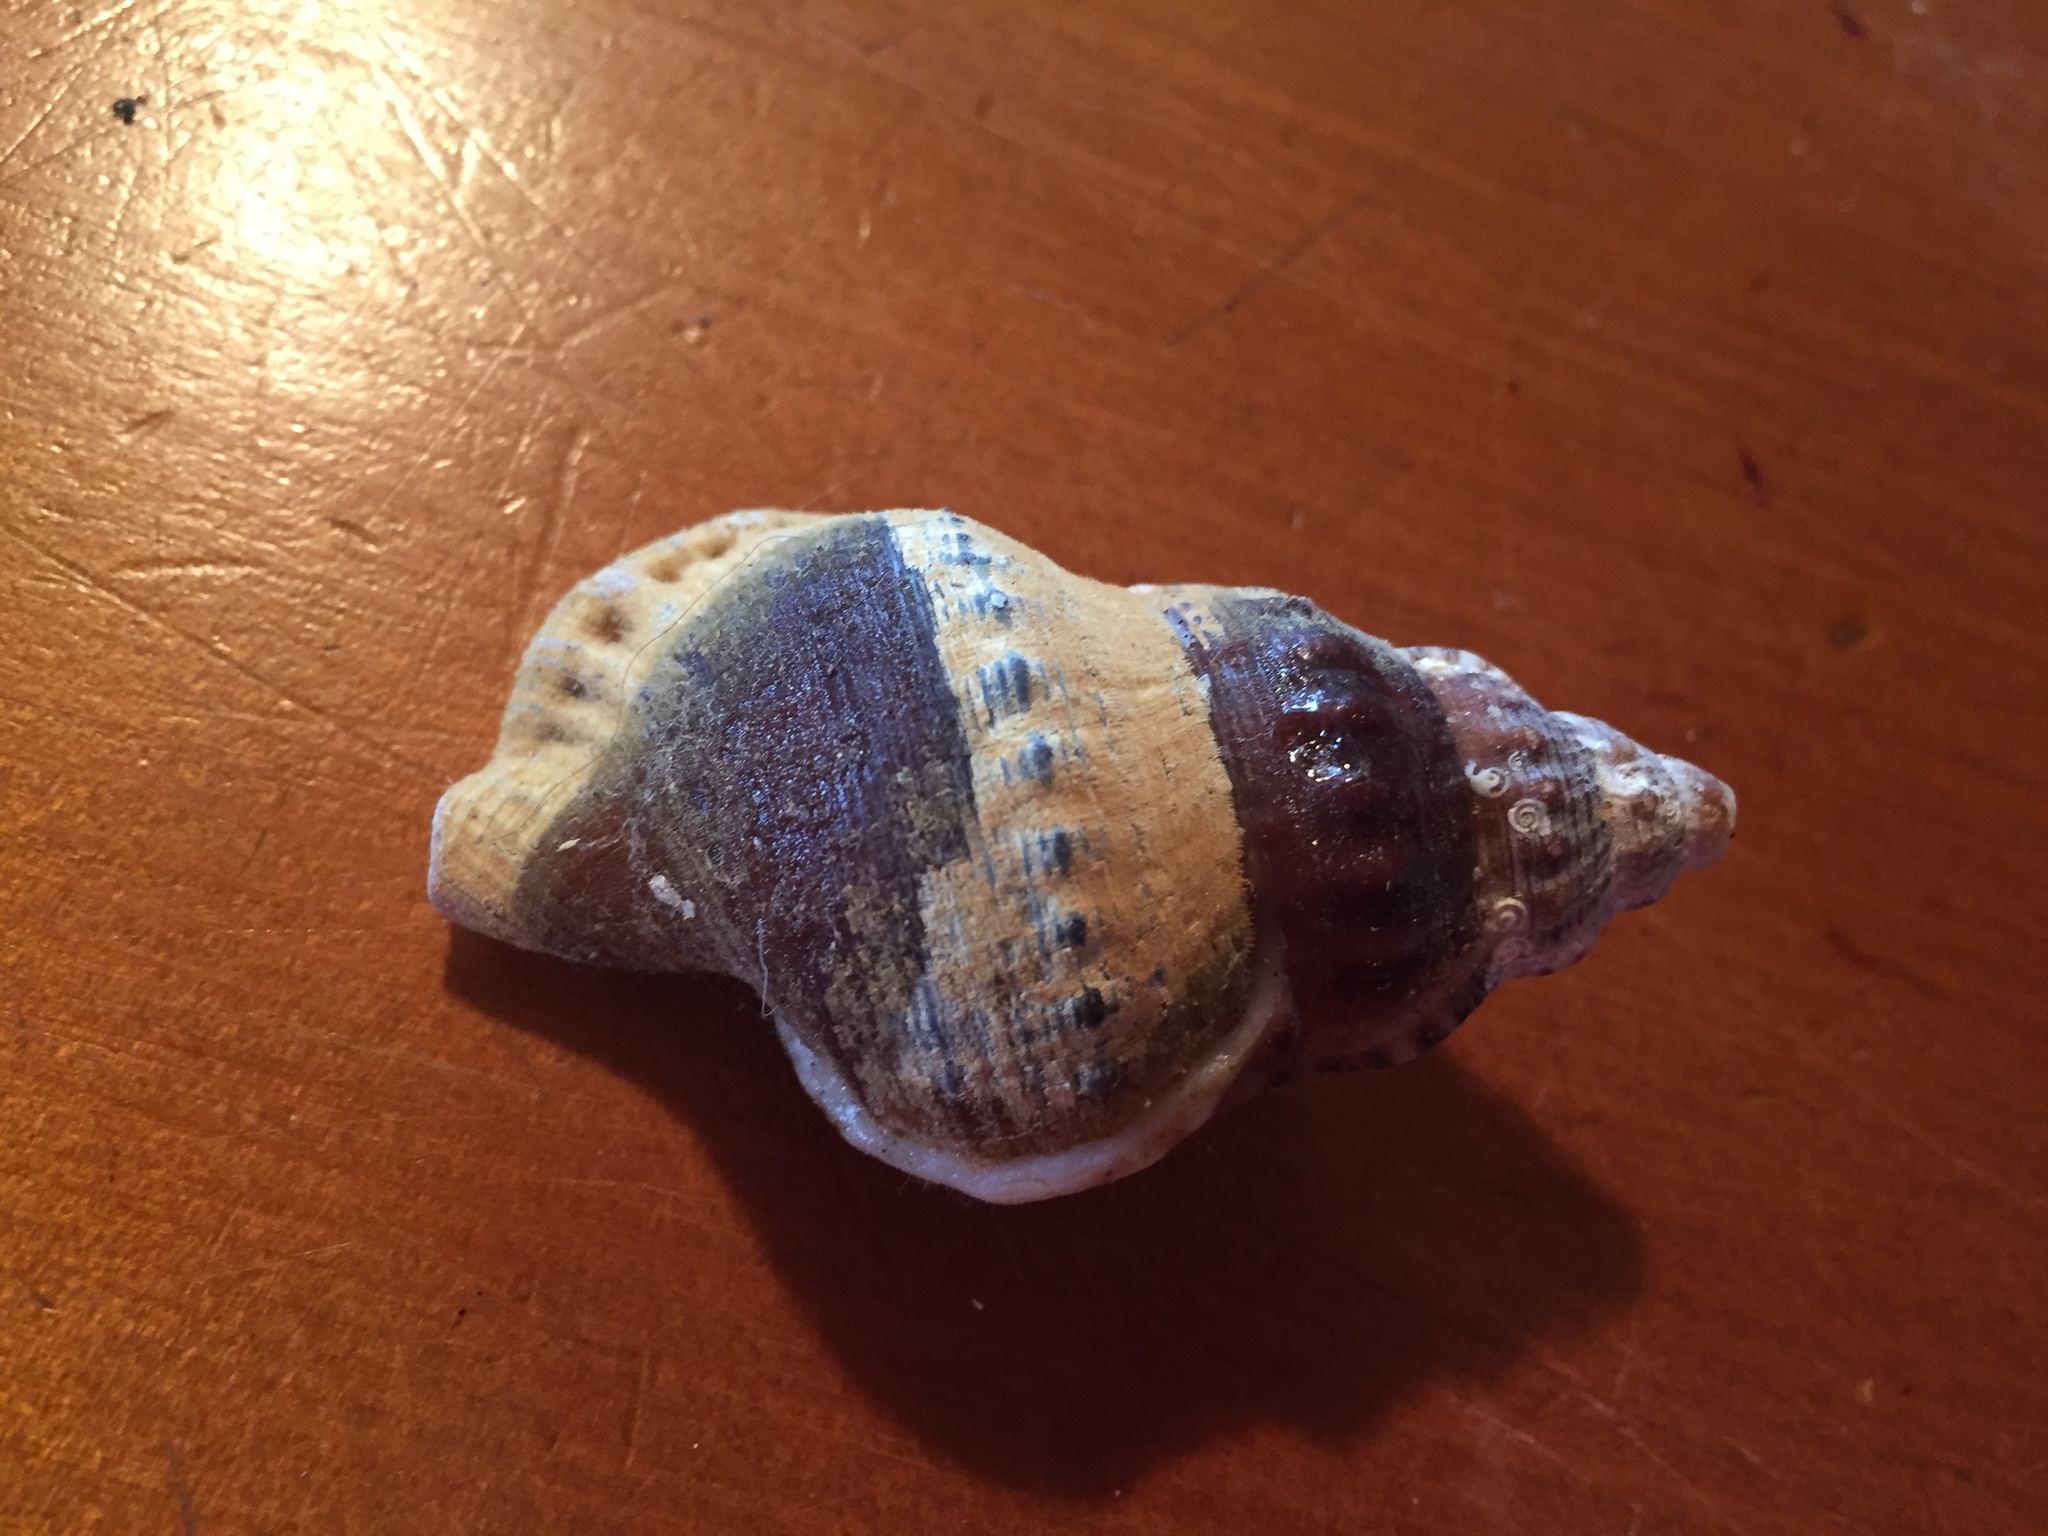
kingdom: Animalia
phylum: Mollusca
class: Gastropoda
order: Littorinimorpha
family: Ranellidae
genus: Ranella
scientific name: Ranella australasia
